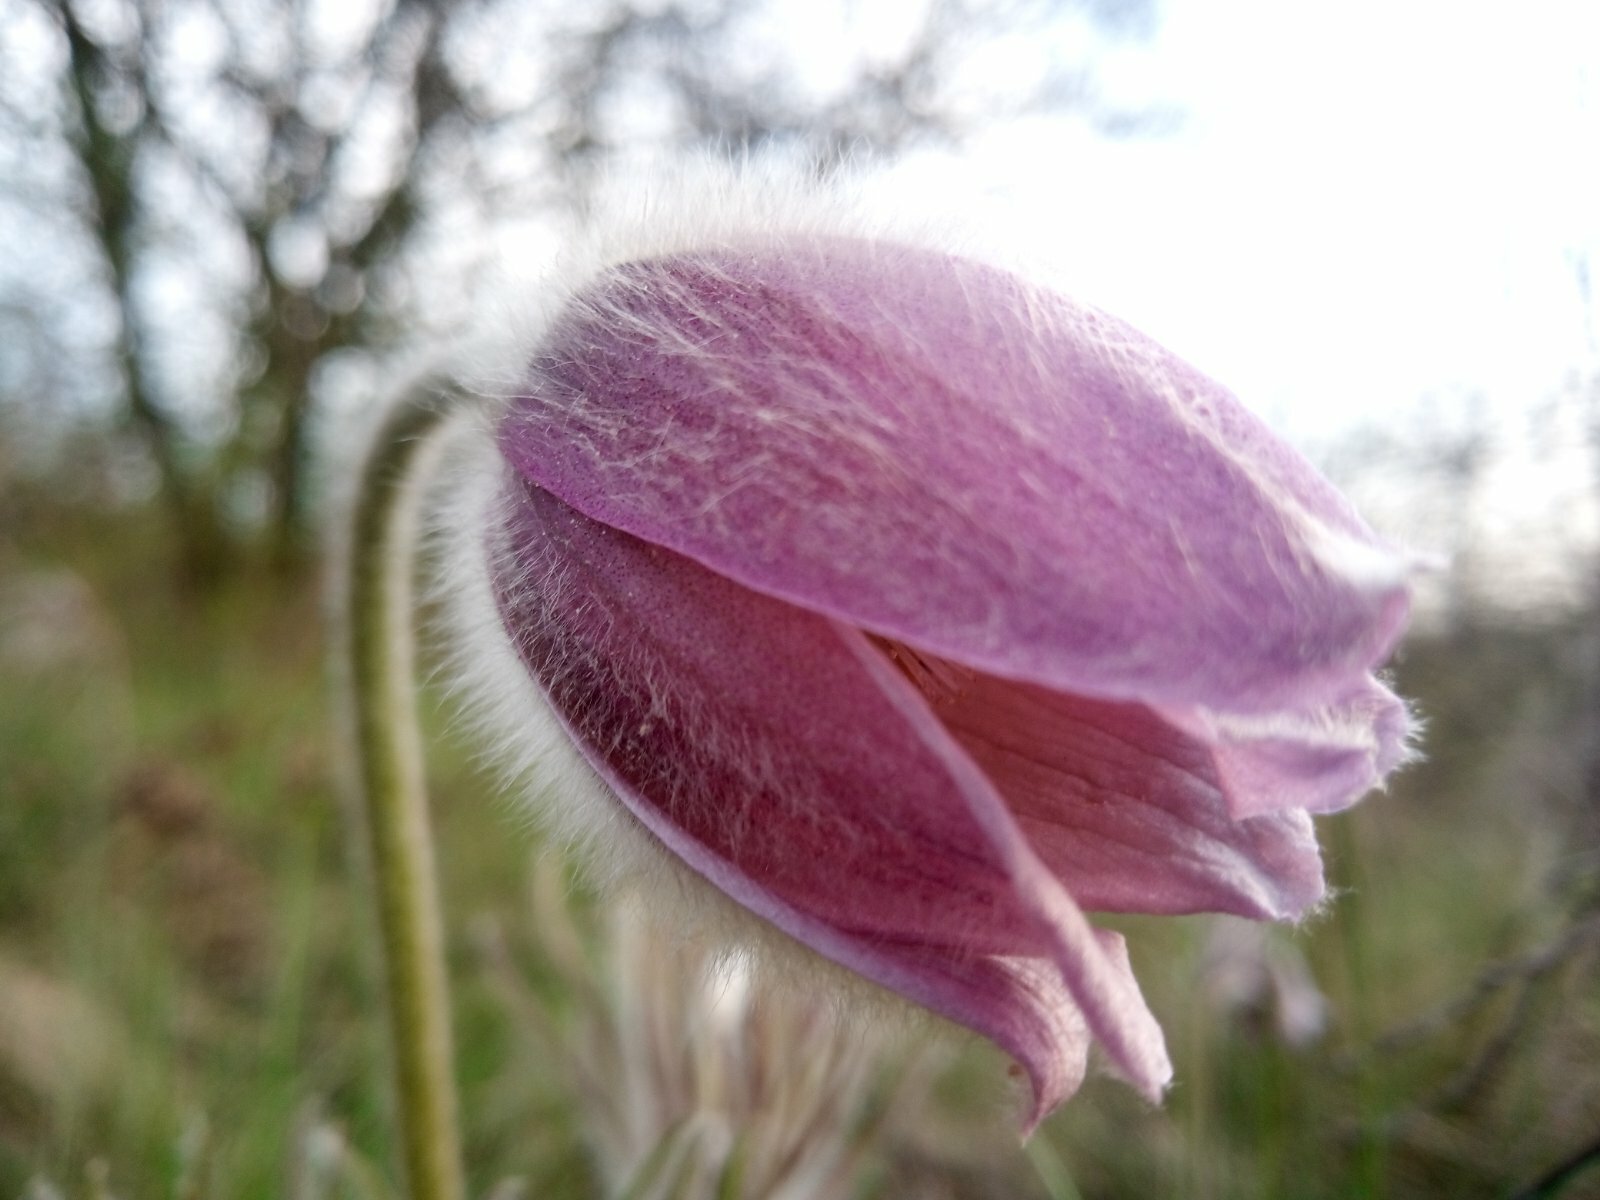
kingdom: Plantae
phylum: Tracheophyta
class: Magnoliopsida
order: Ranunculales
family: Ranunculaceae
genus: Pulsatilla
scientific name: Pulsatilla pratensis
